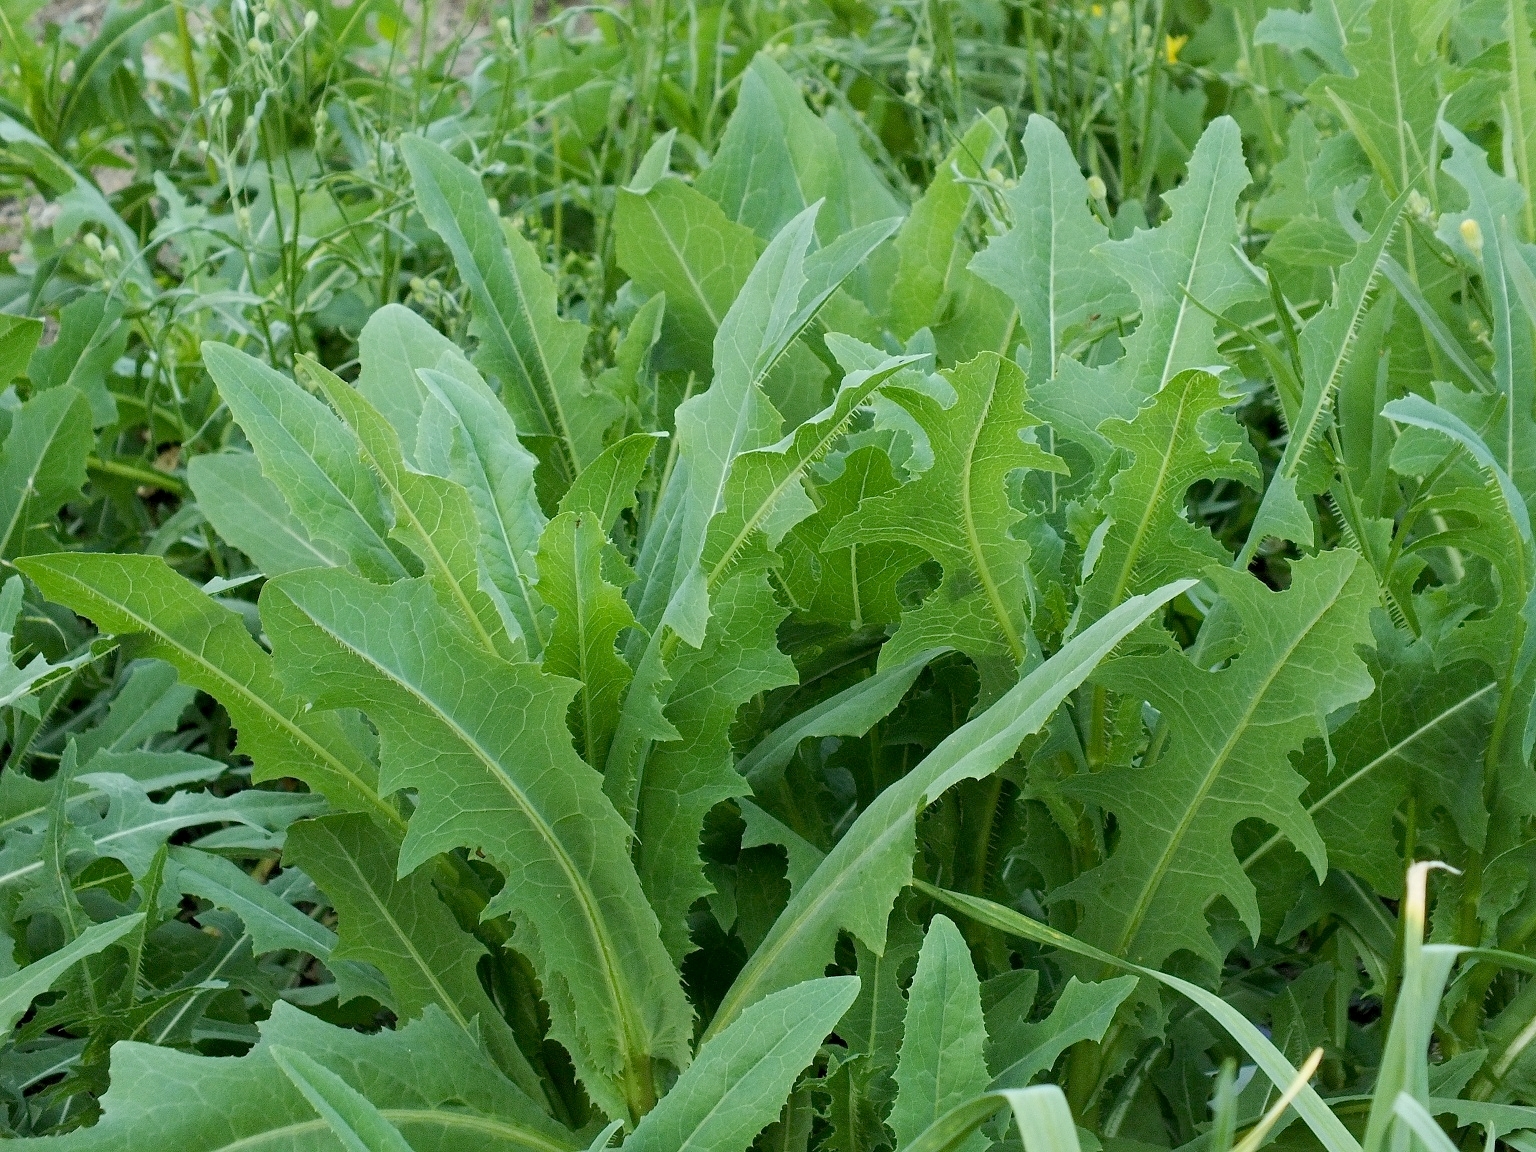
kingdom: Plantae
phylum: Tracheophyta
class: Magnoliopsida
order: Asterales
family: Asteraceae
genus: Lactuca
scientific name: Lactuca serriola
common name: Prickly lettuce
